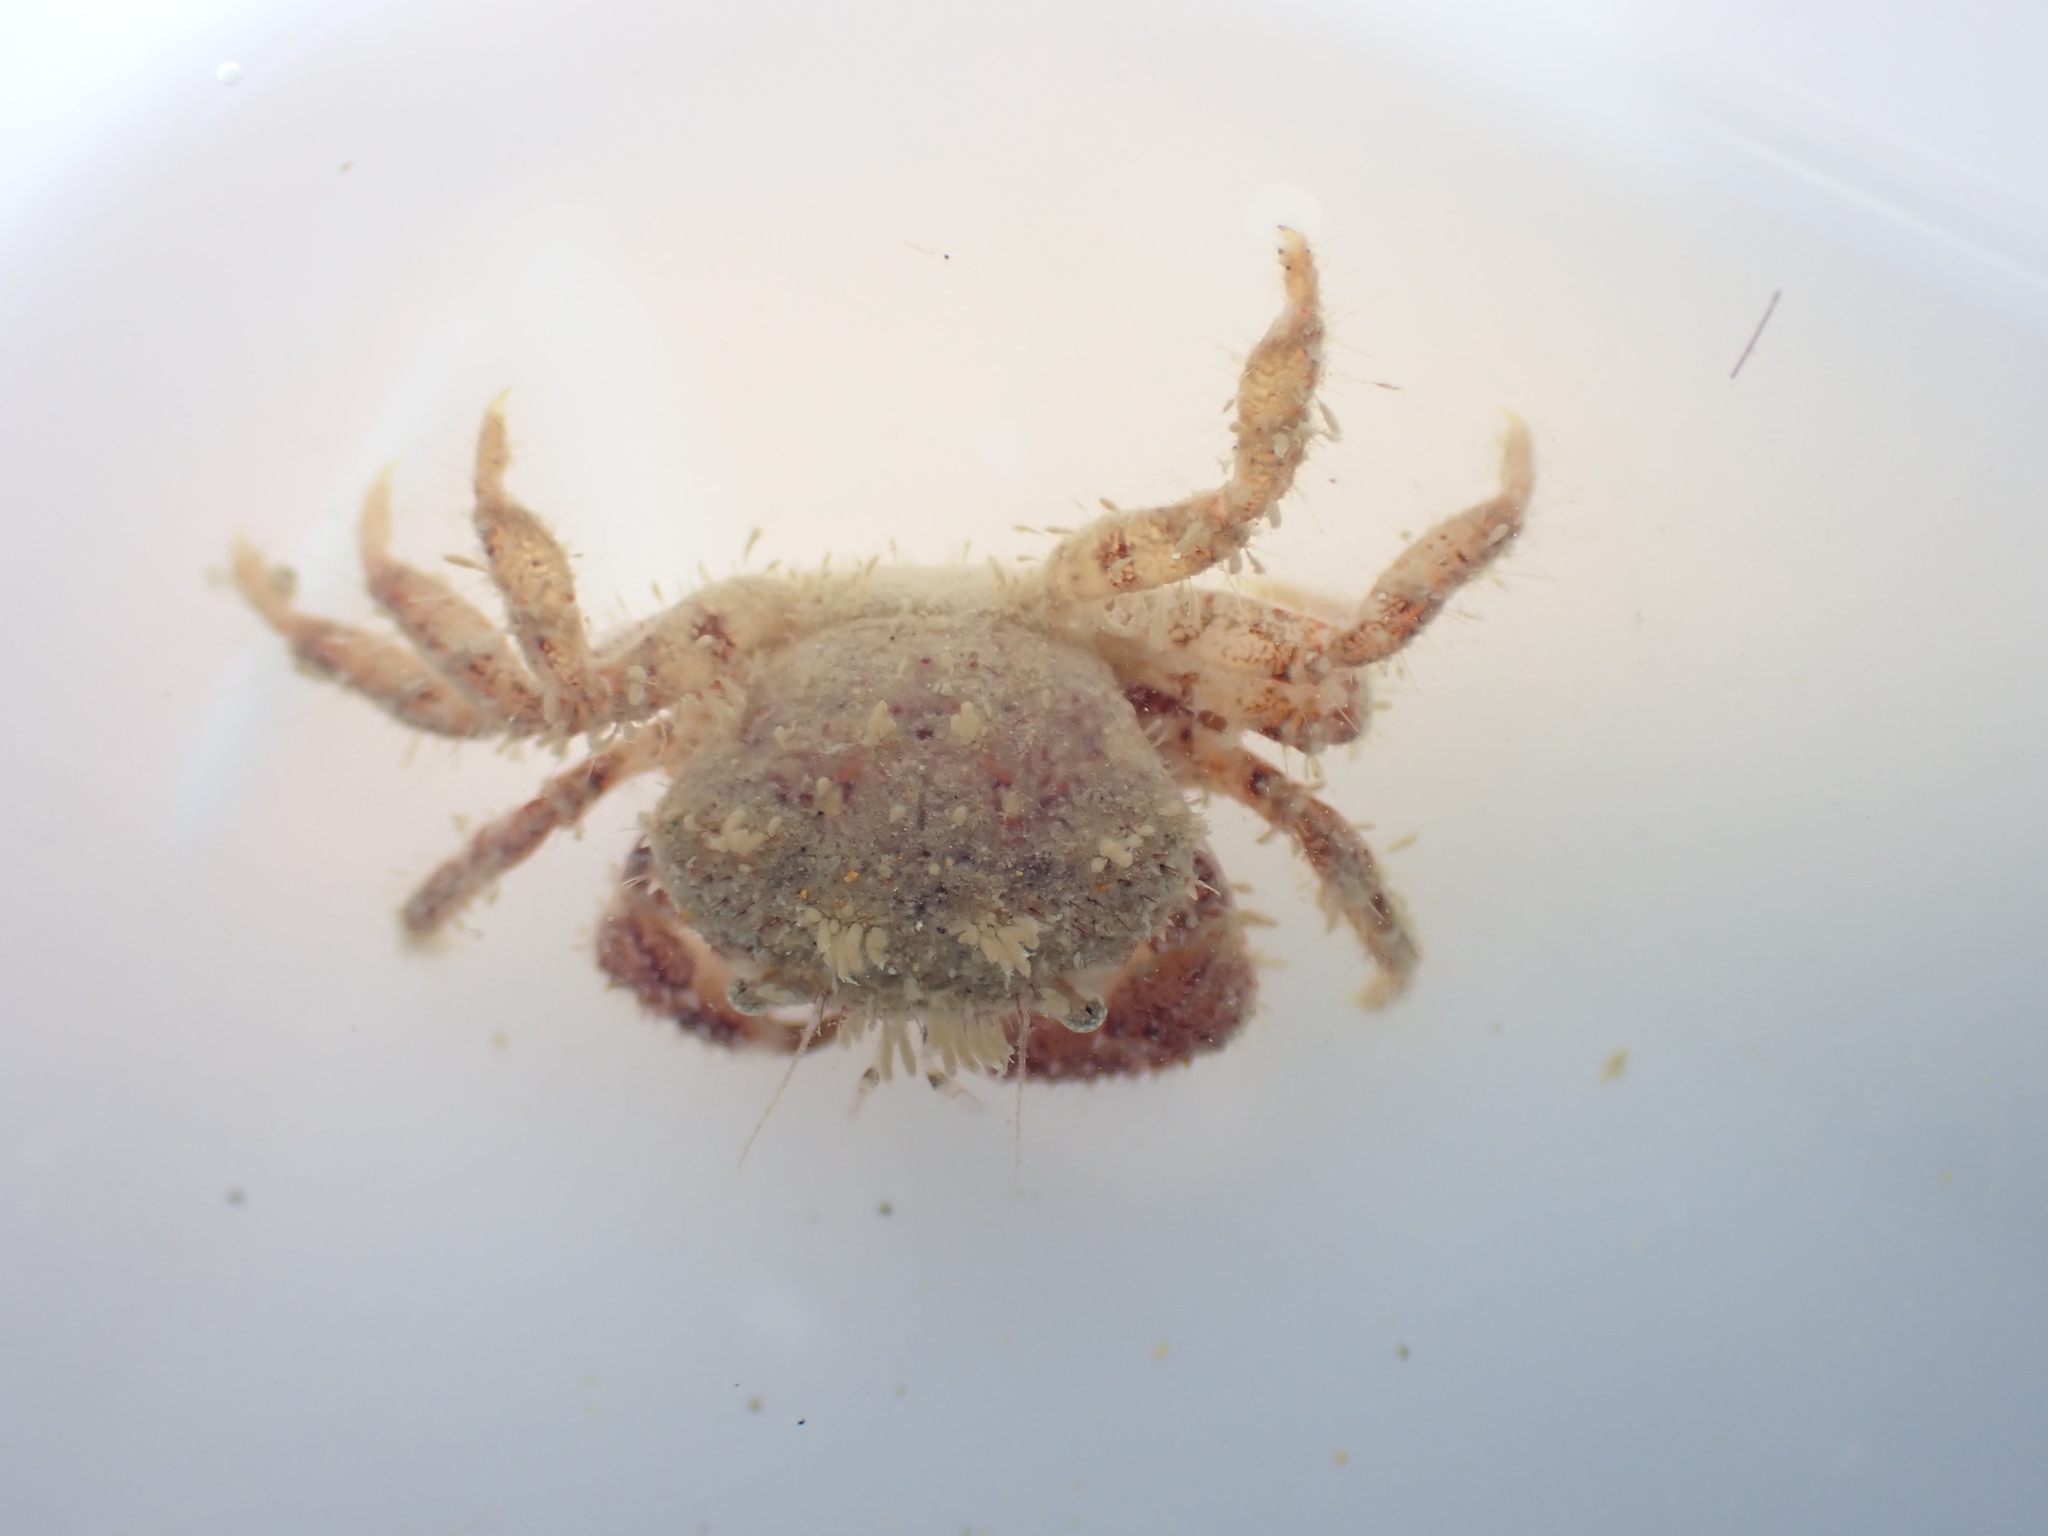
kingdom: Animalia
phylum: Arthropoda
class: Malacostraca
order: Decapoda
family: Pilumnidae
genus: Pilumnus
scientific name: Pilumnus novaezealandiae
